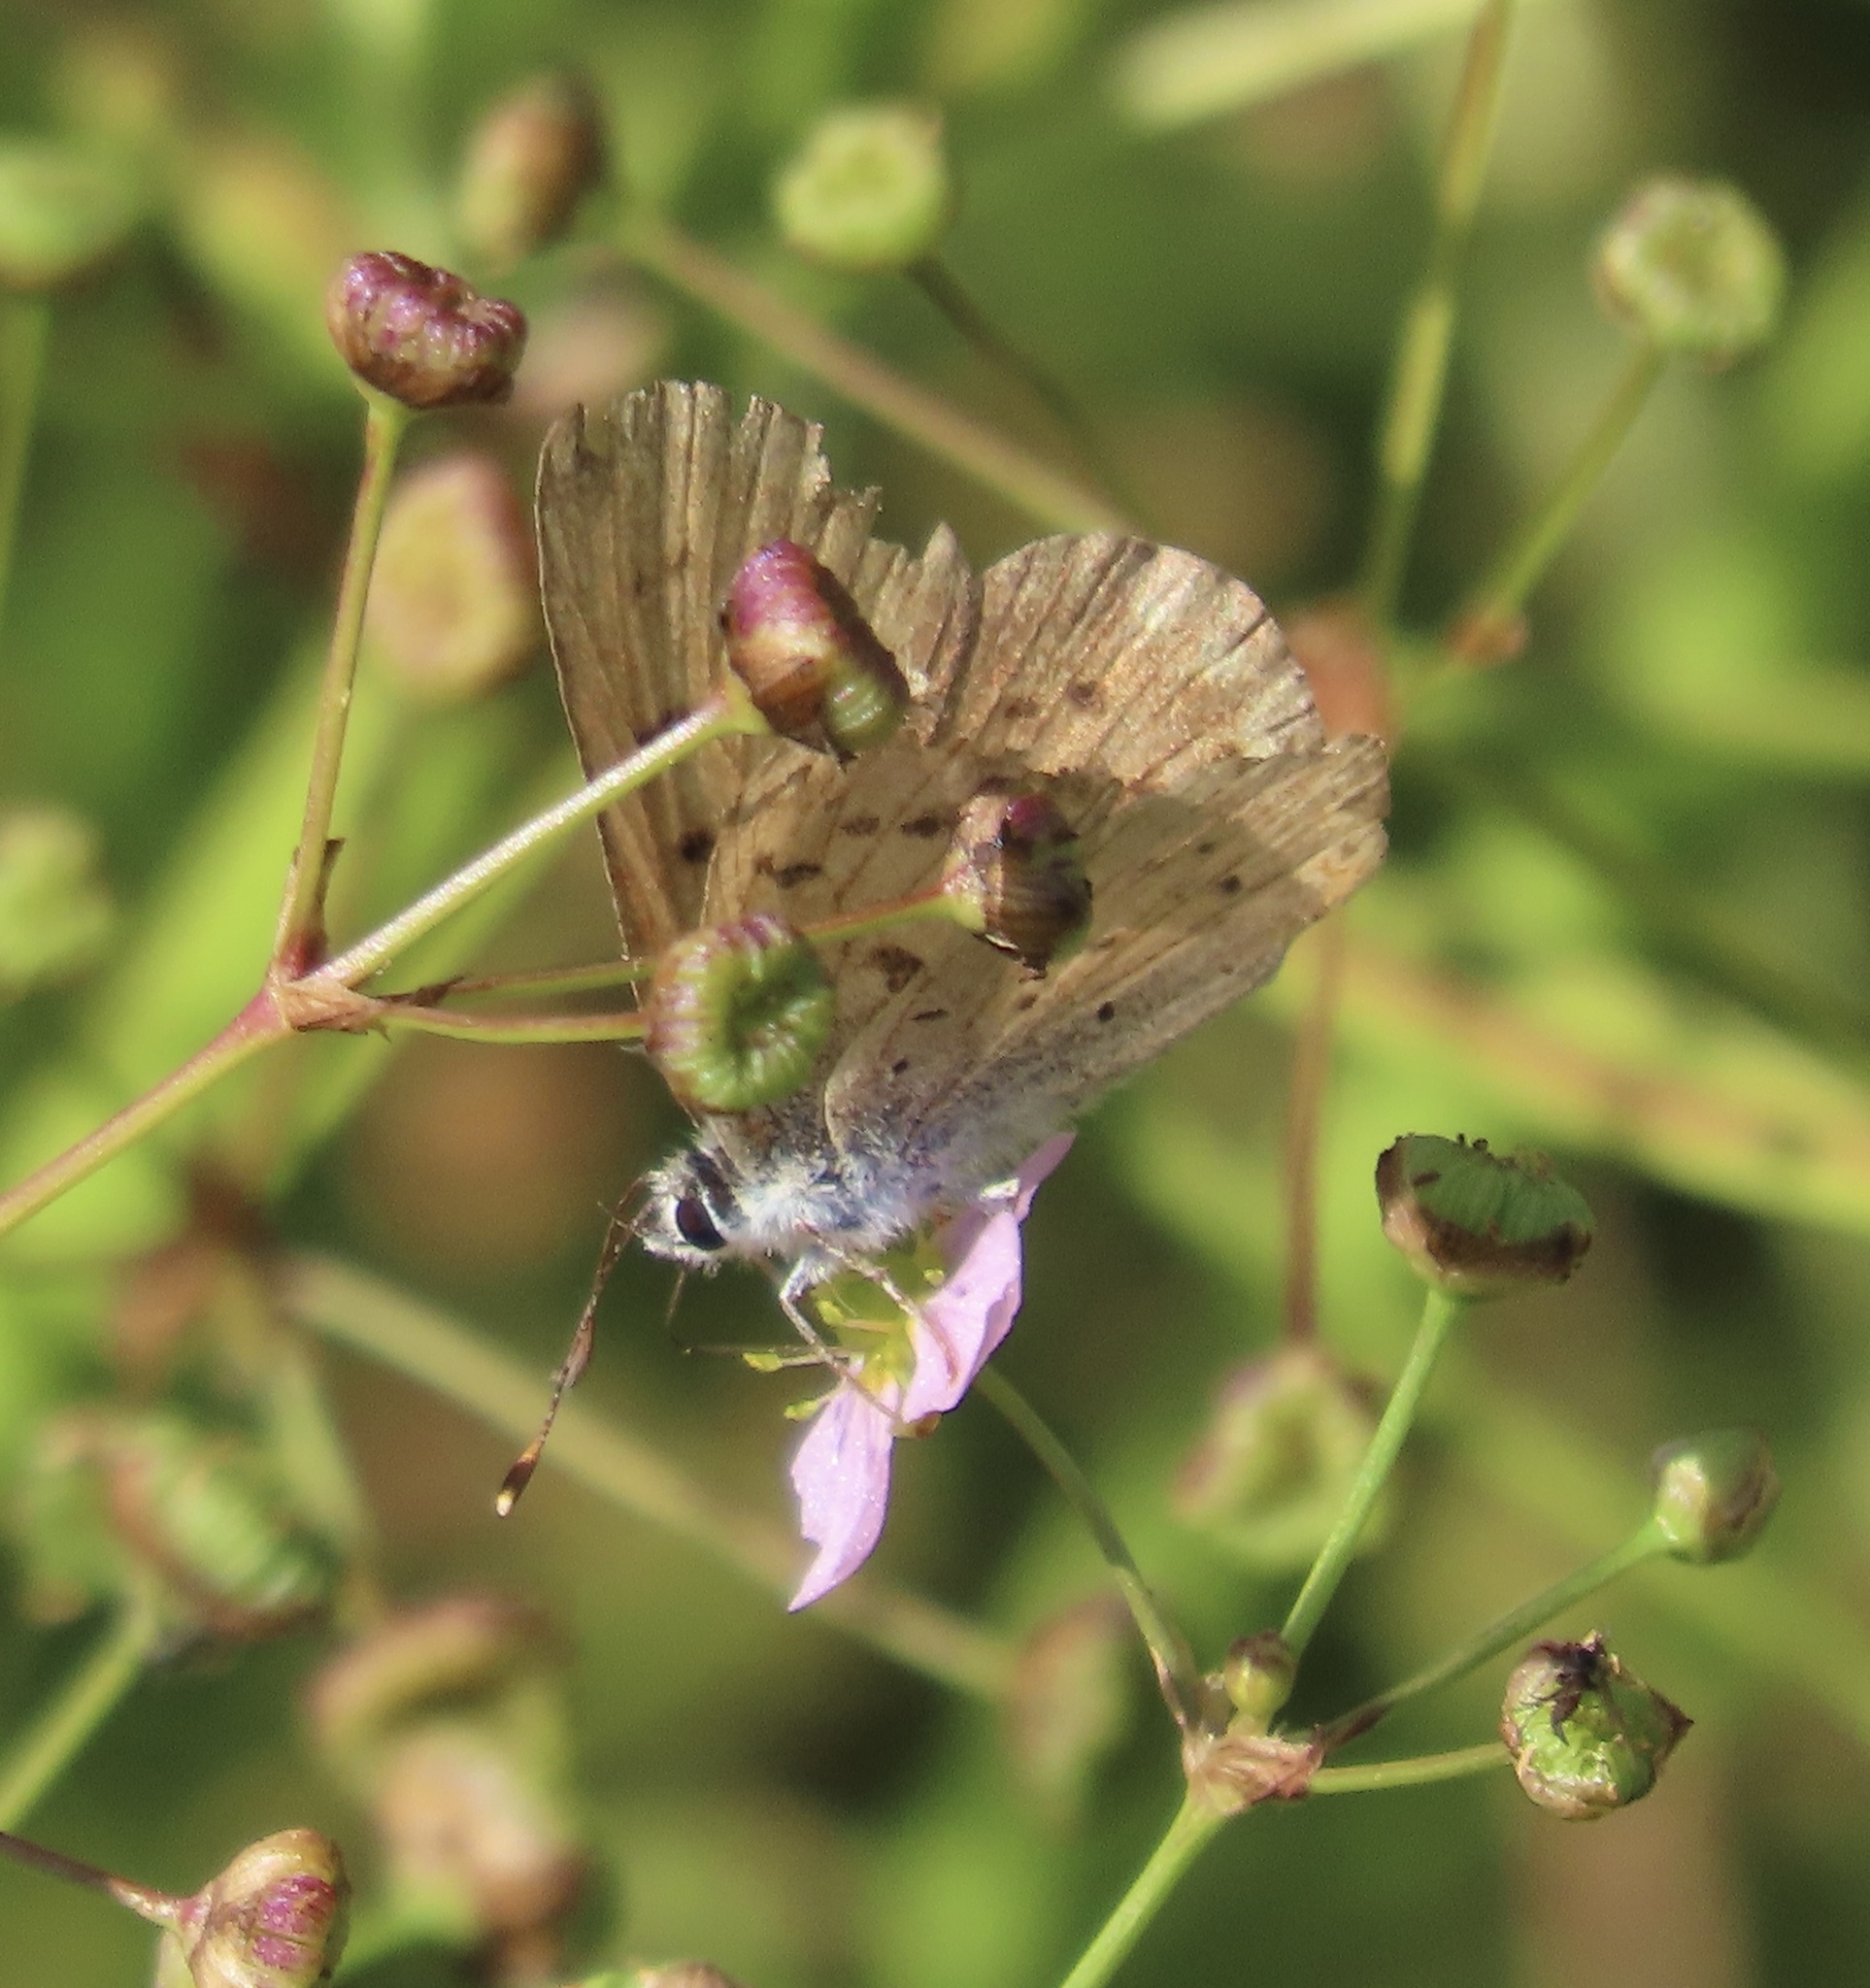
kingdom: Animalia
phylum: Arthropoda
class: Insecta
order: Lepidoptera
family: Lycaenidae
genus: Tharsalea
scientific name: Tharsalea helloides
